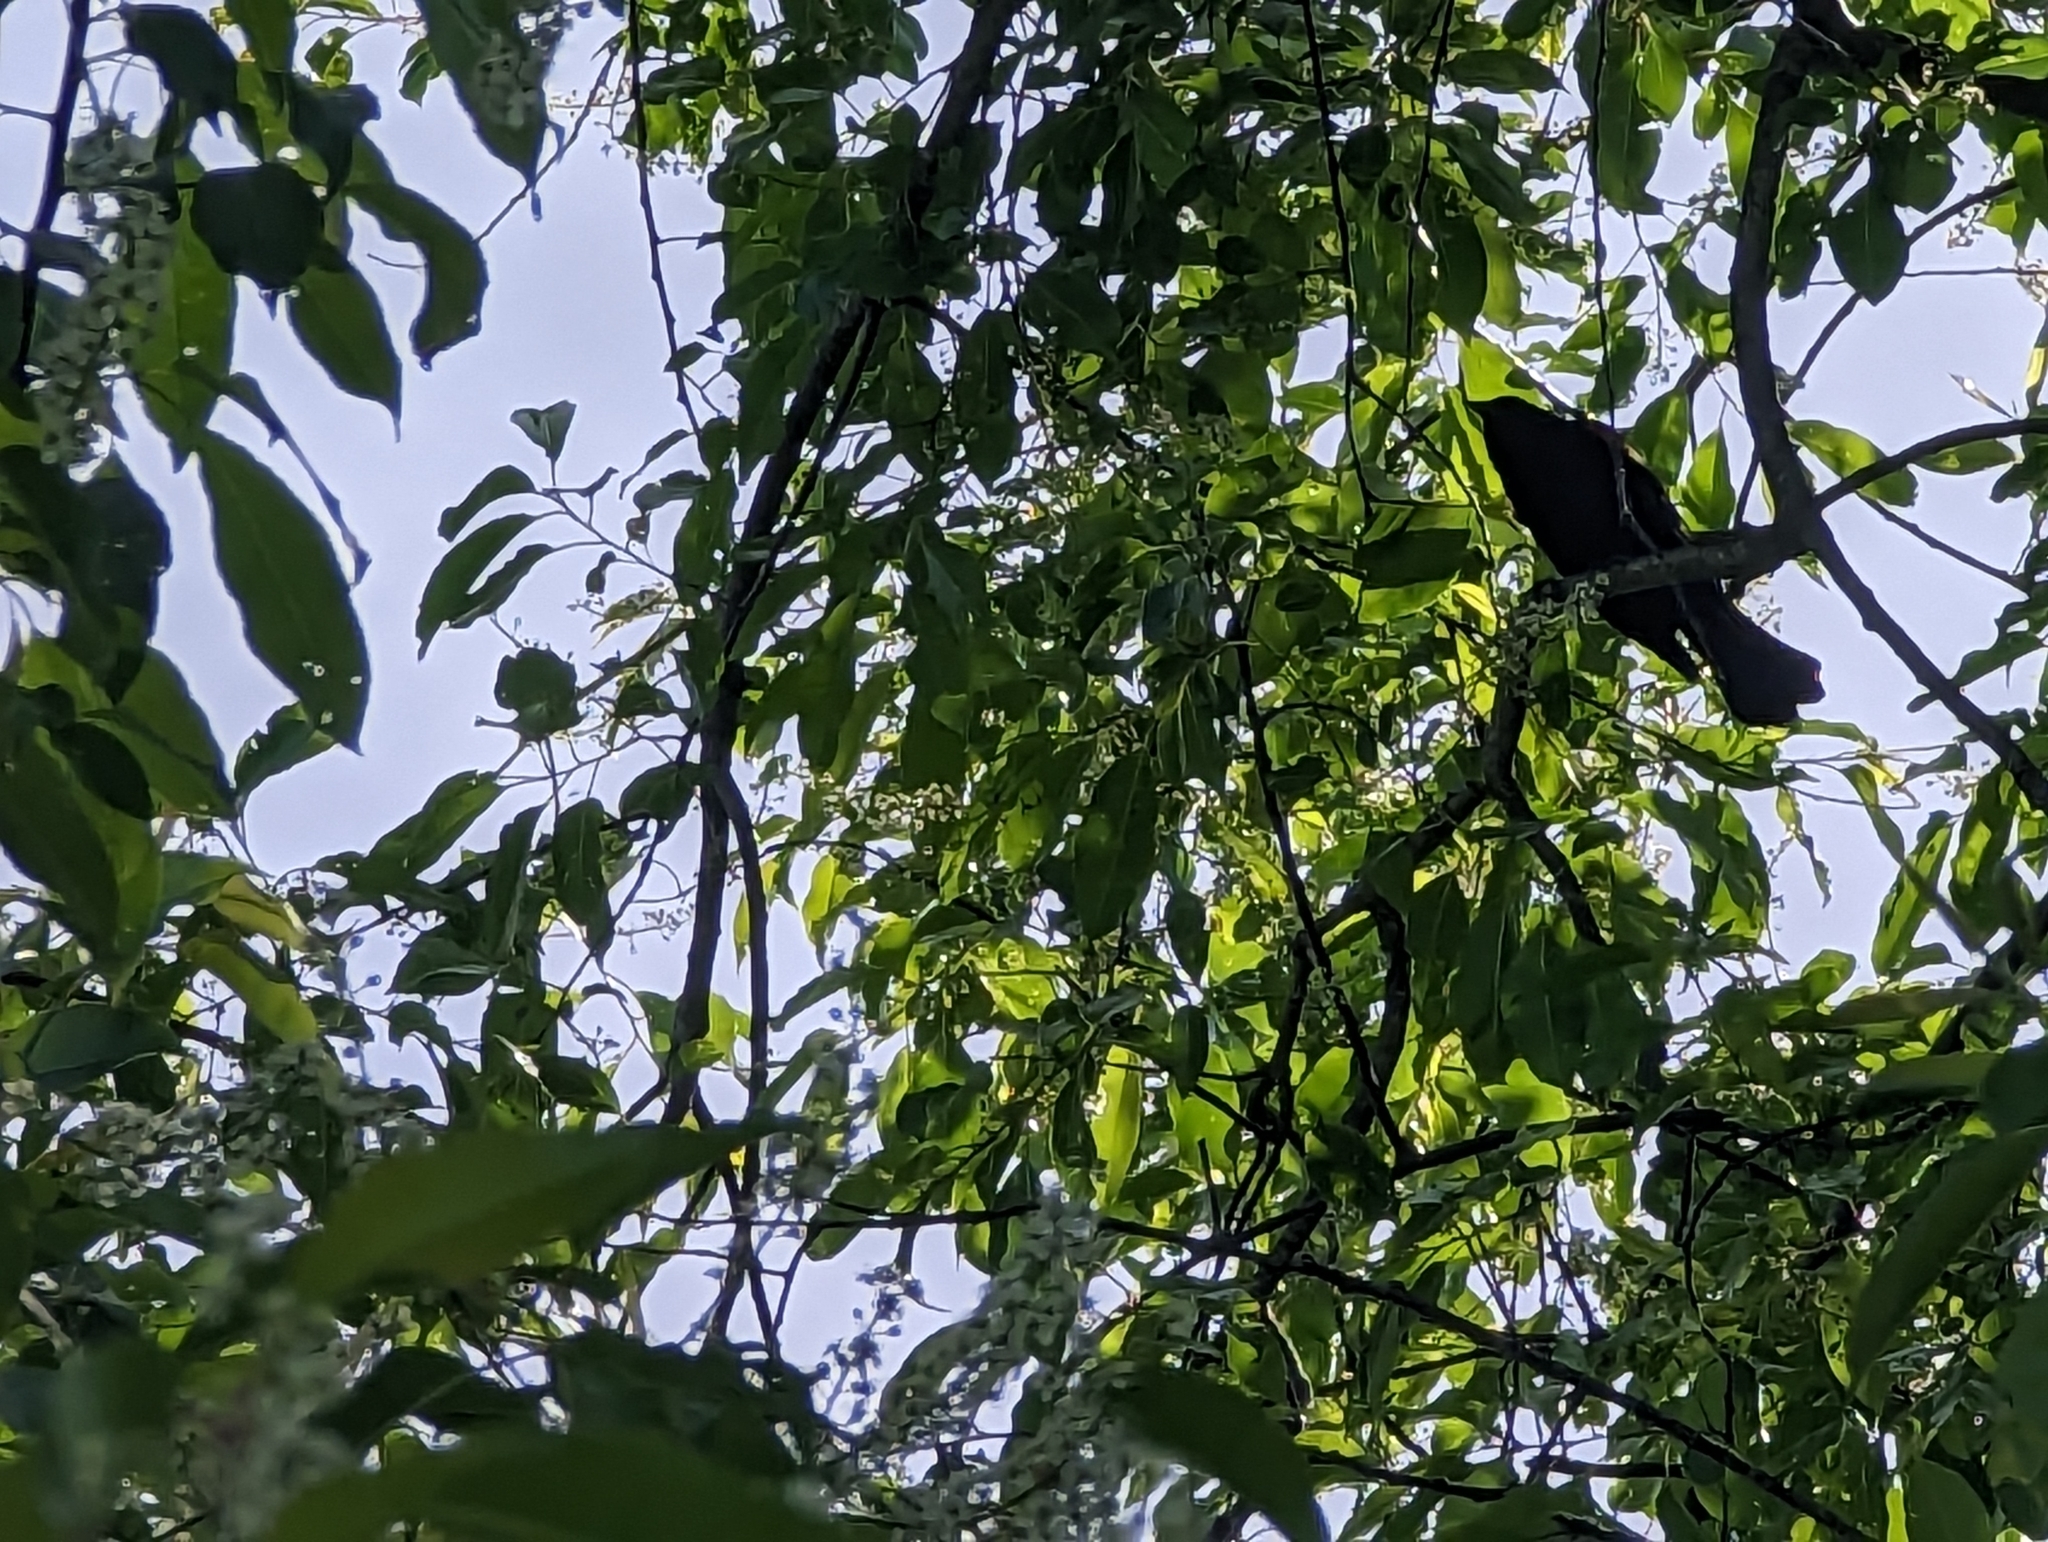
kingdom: Animalia
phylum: Chordata
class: Aves
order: Passeriformes
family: Icteridae
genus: Agelaius
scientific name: Agelaius phoeniceus
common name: Red-winged blackbird
